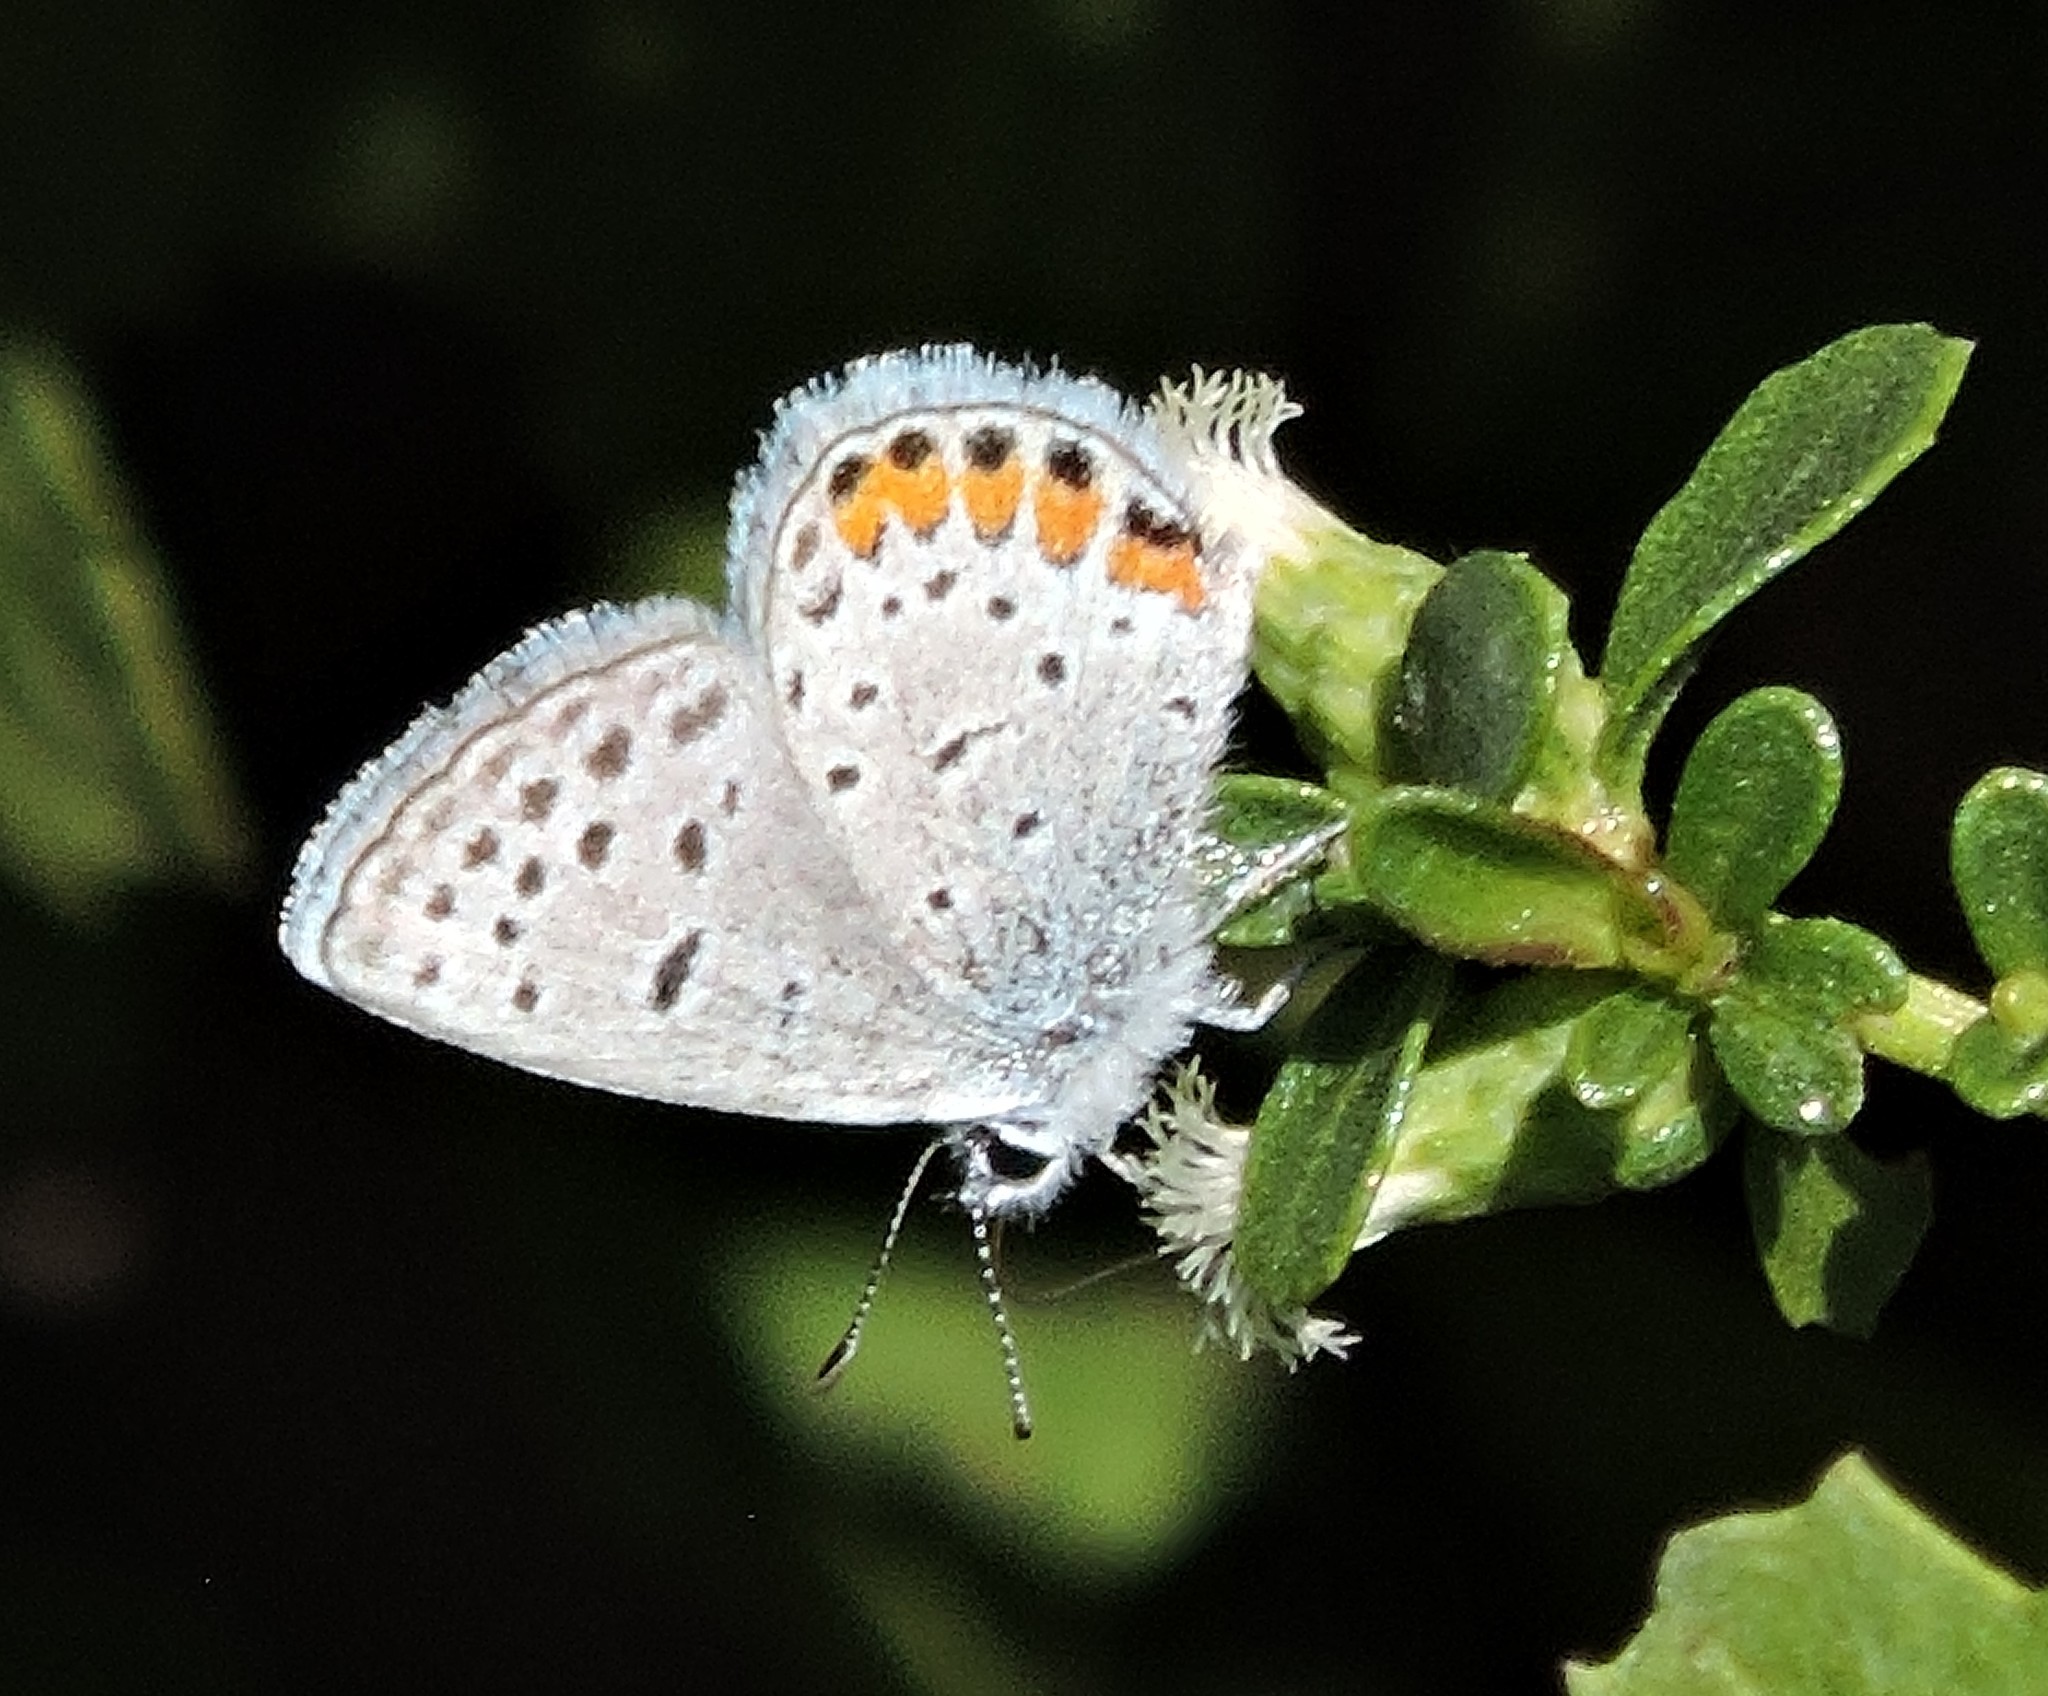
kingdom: Animalia
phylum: Arthropoda
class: Insecta
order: Lepidoptera
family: Lycaenidae
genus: Icaricia
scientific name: Icaricia acmon
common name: Acmon blue
